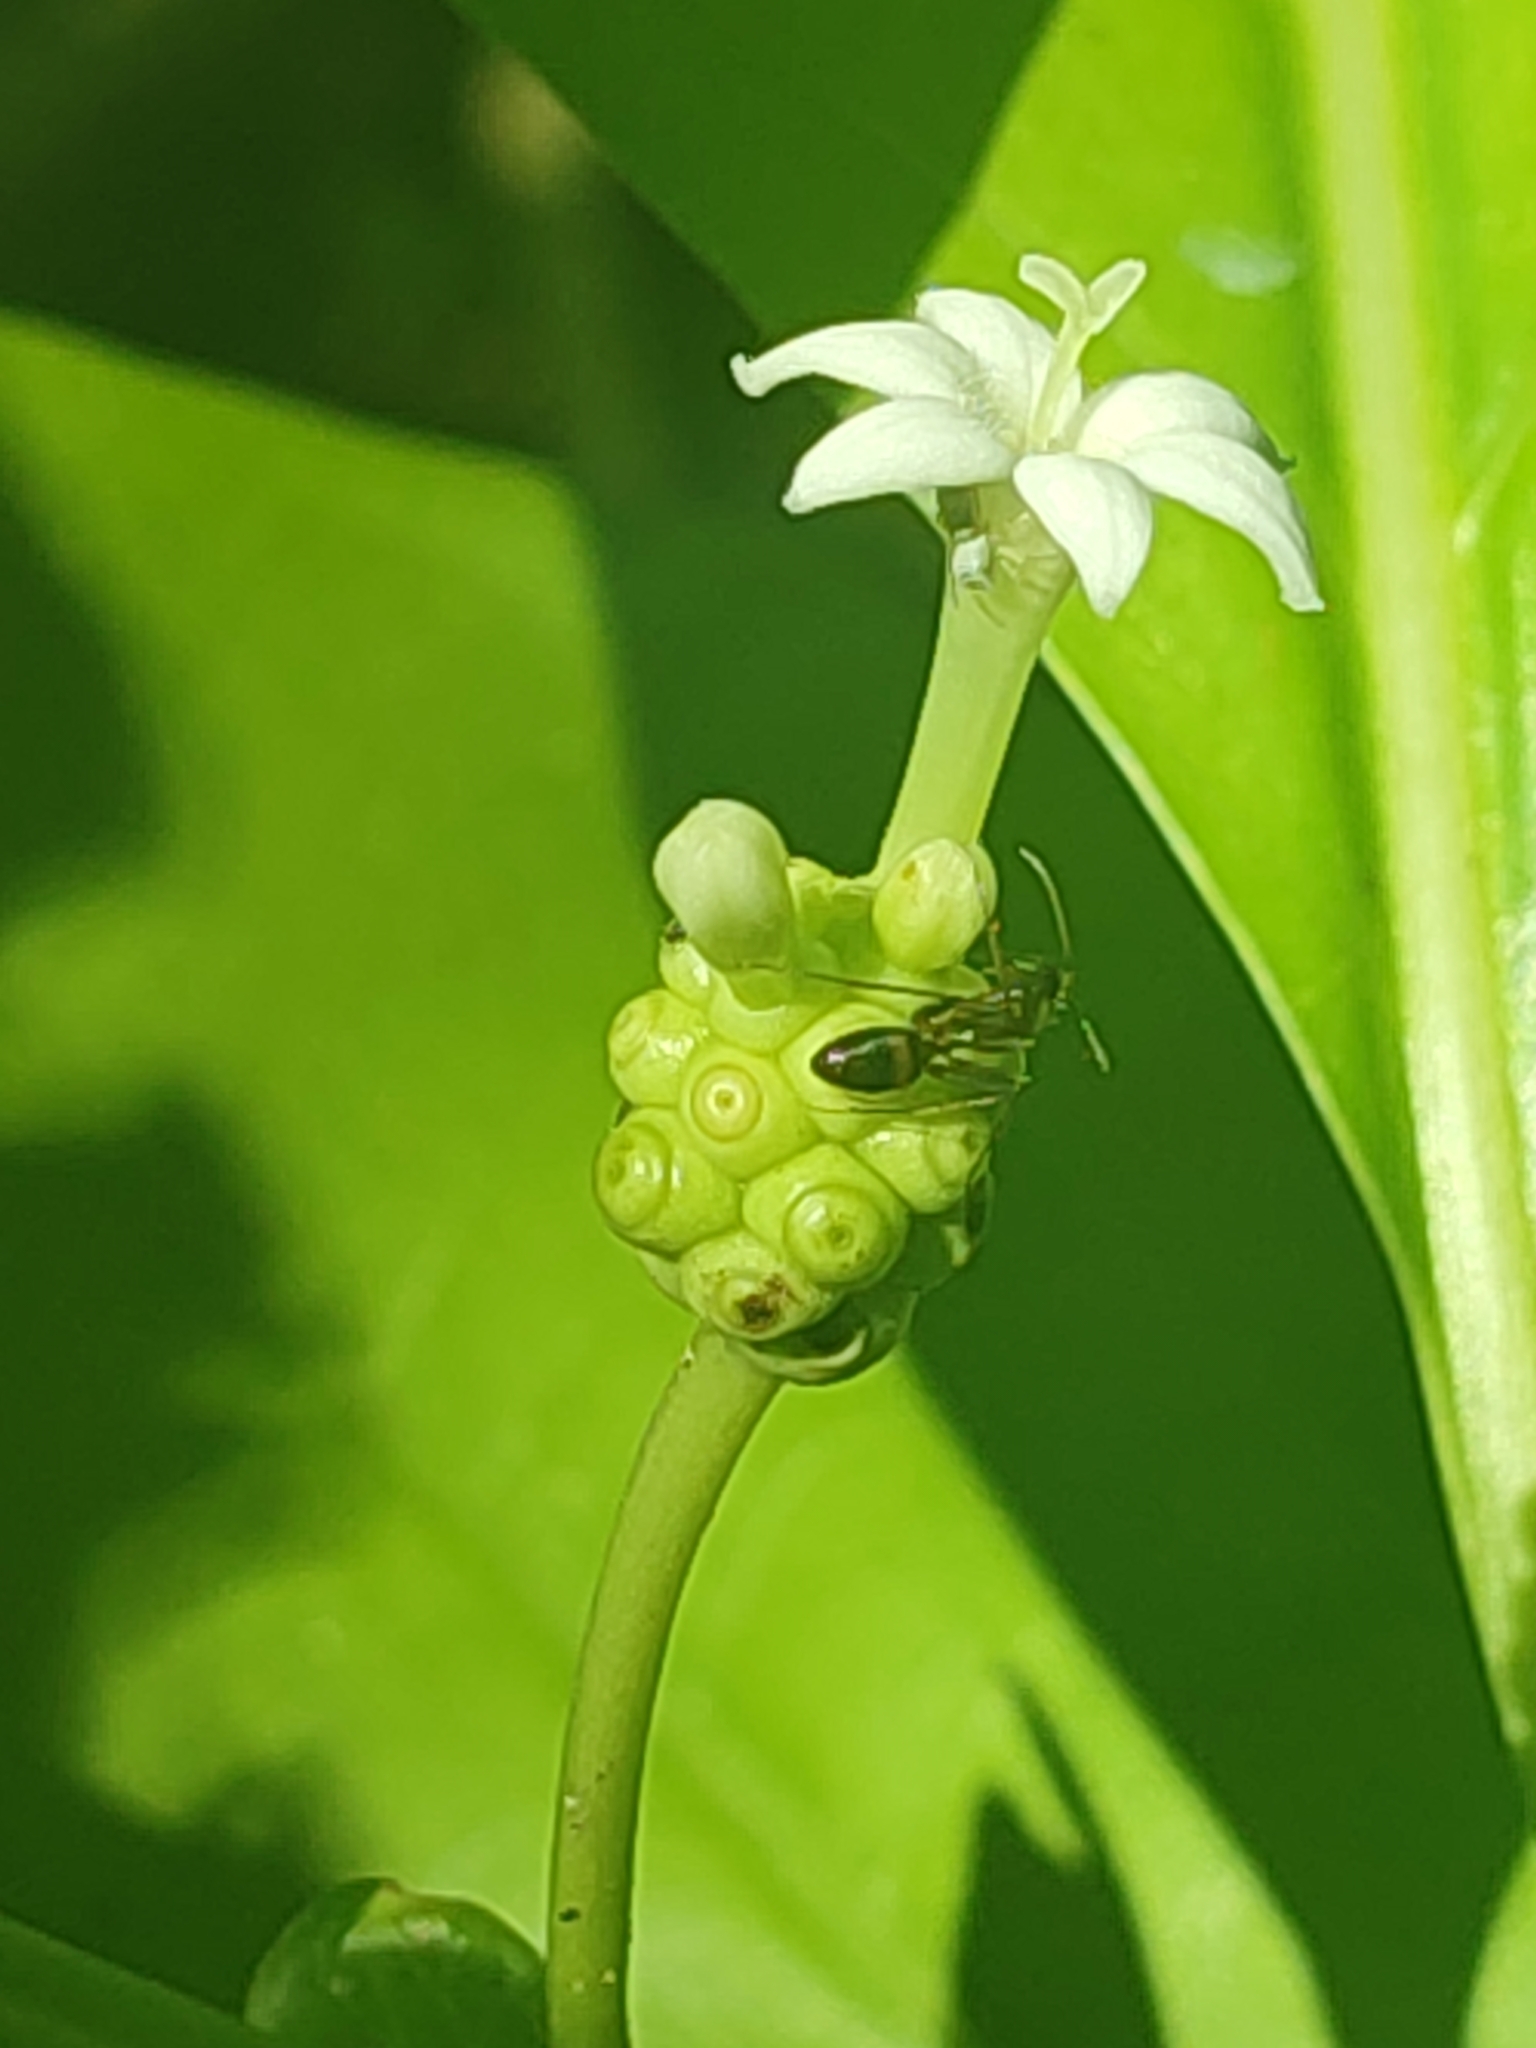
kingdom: Plantae
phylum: Tracheophyta
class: Magnoliopsida
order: Gentianales
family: Rubiaceae
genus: Morinda
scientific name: Morinda citrifolia
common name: Indian-mulberry
